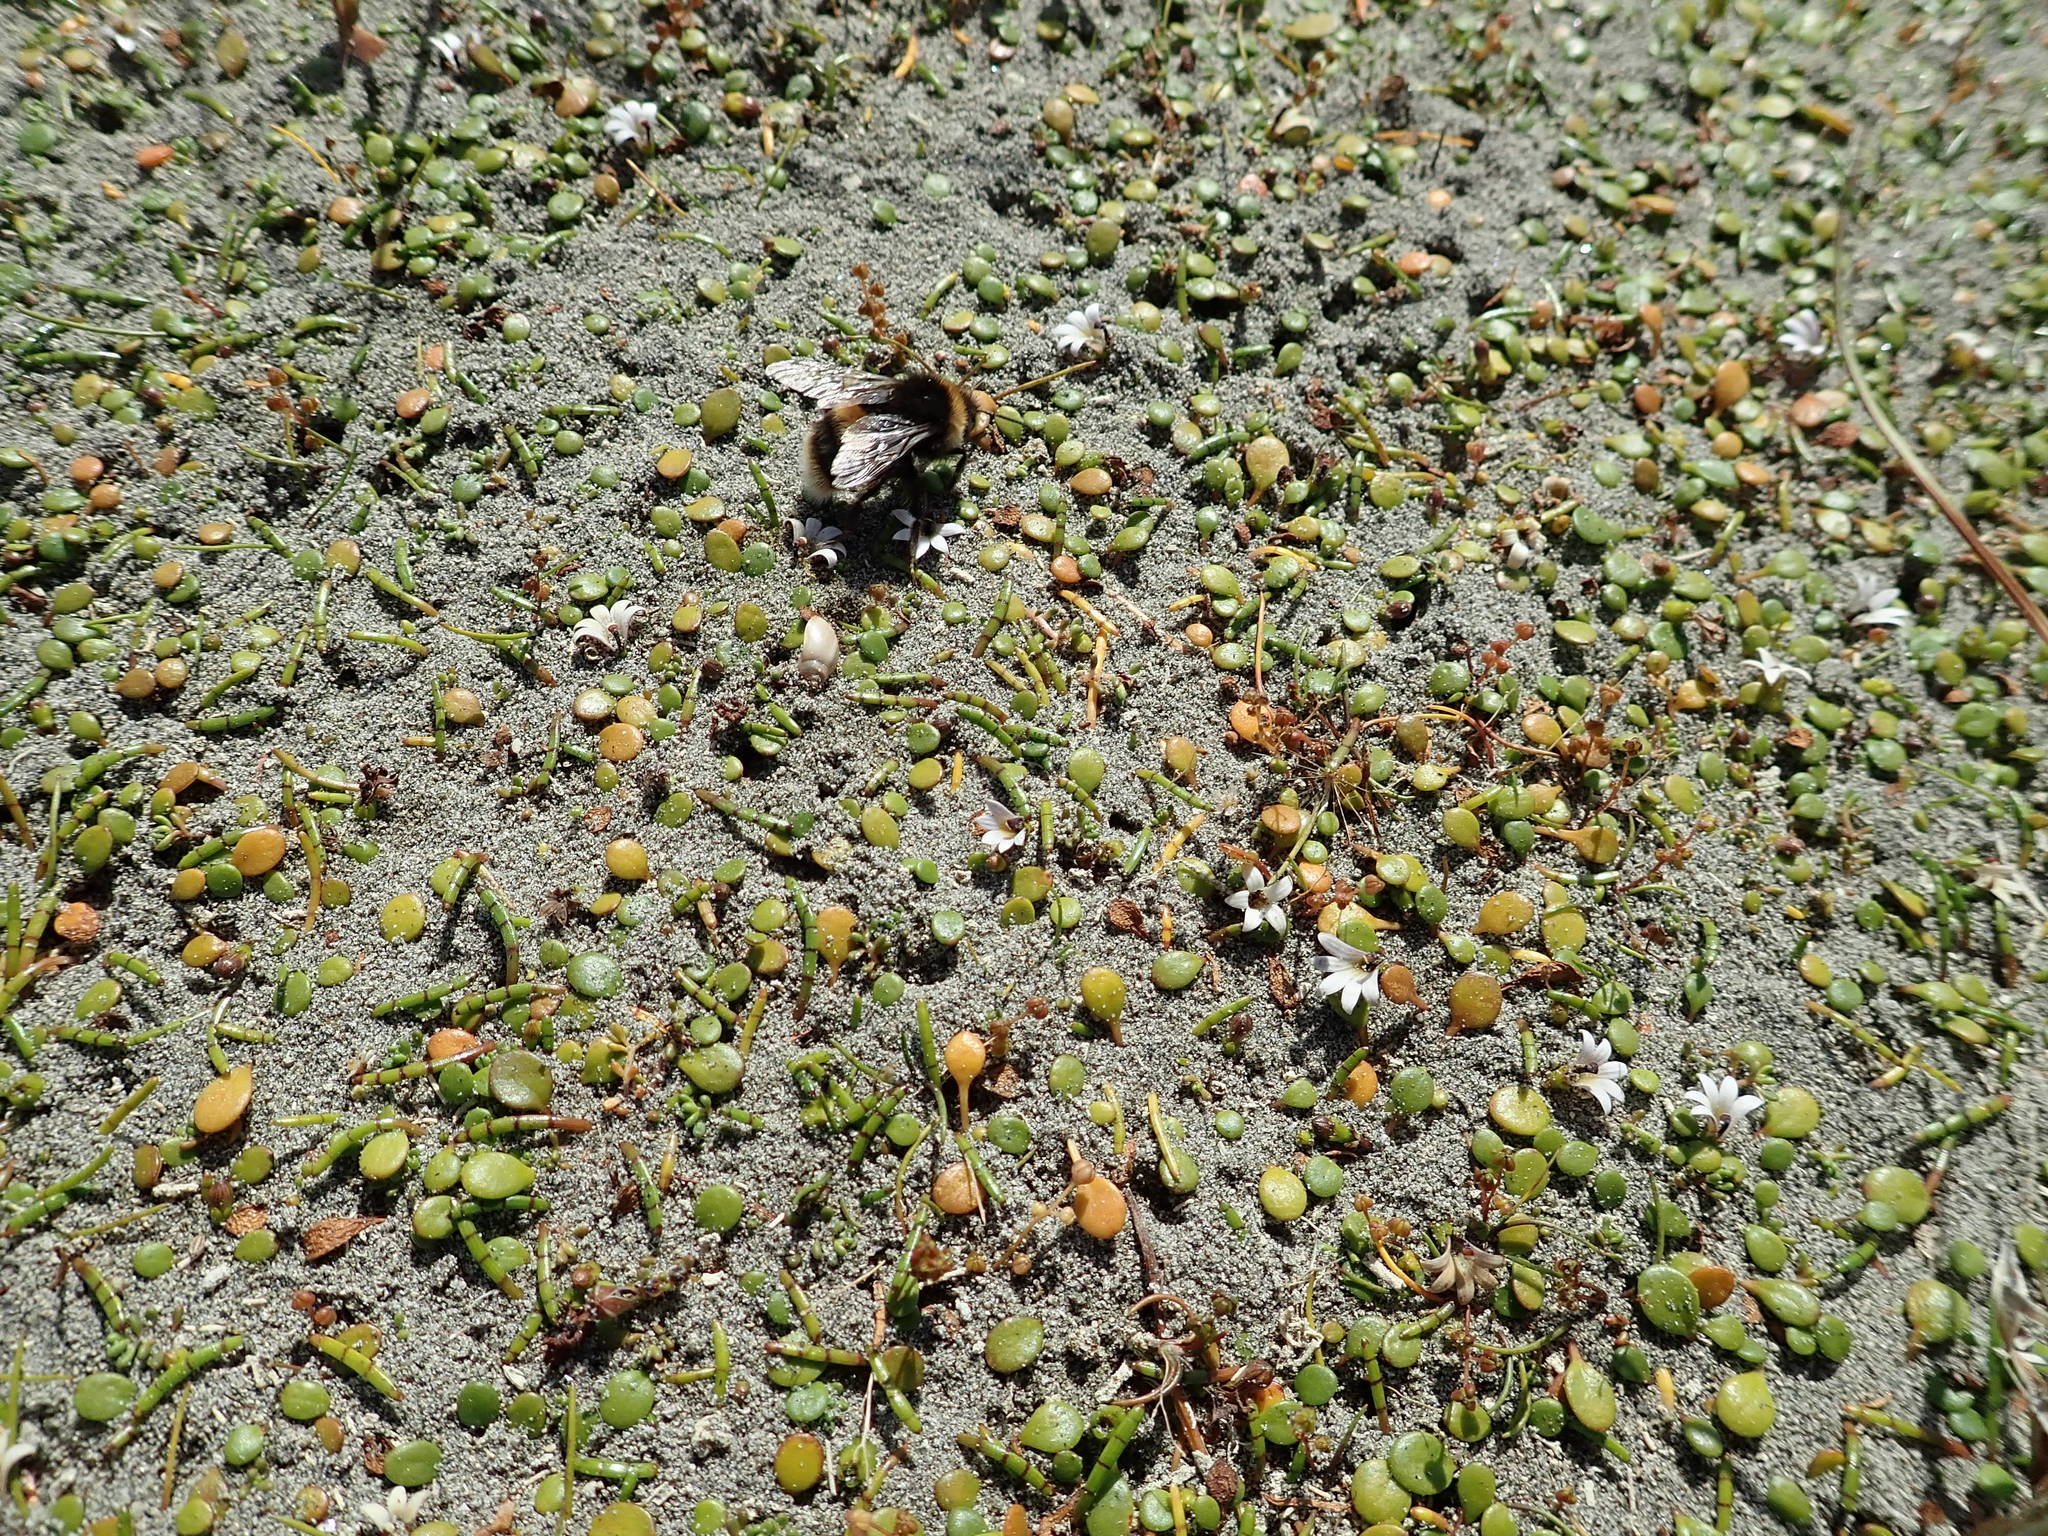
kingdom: Animalia
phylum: Arthropoda
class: Insecta
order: Hymenoptera
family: Apidae
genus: Bombus
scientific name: Bombus terrestris
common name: Buff-tailed bumblebee
